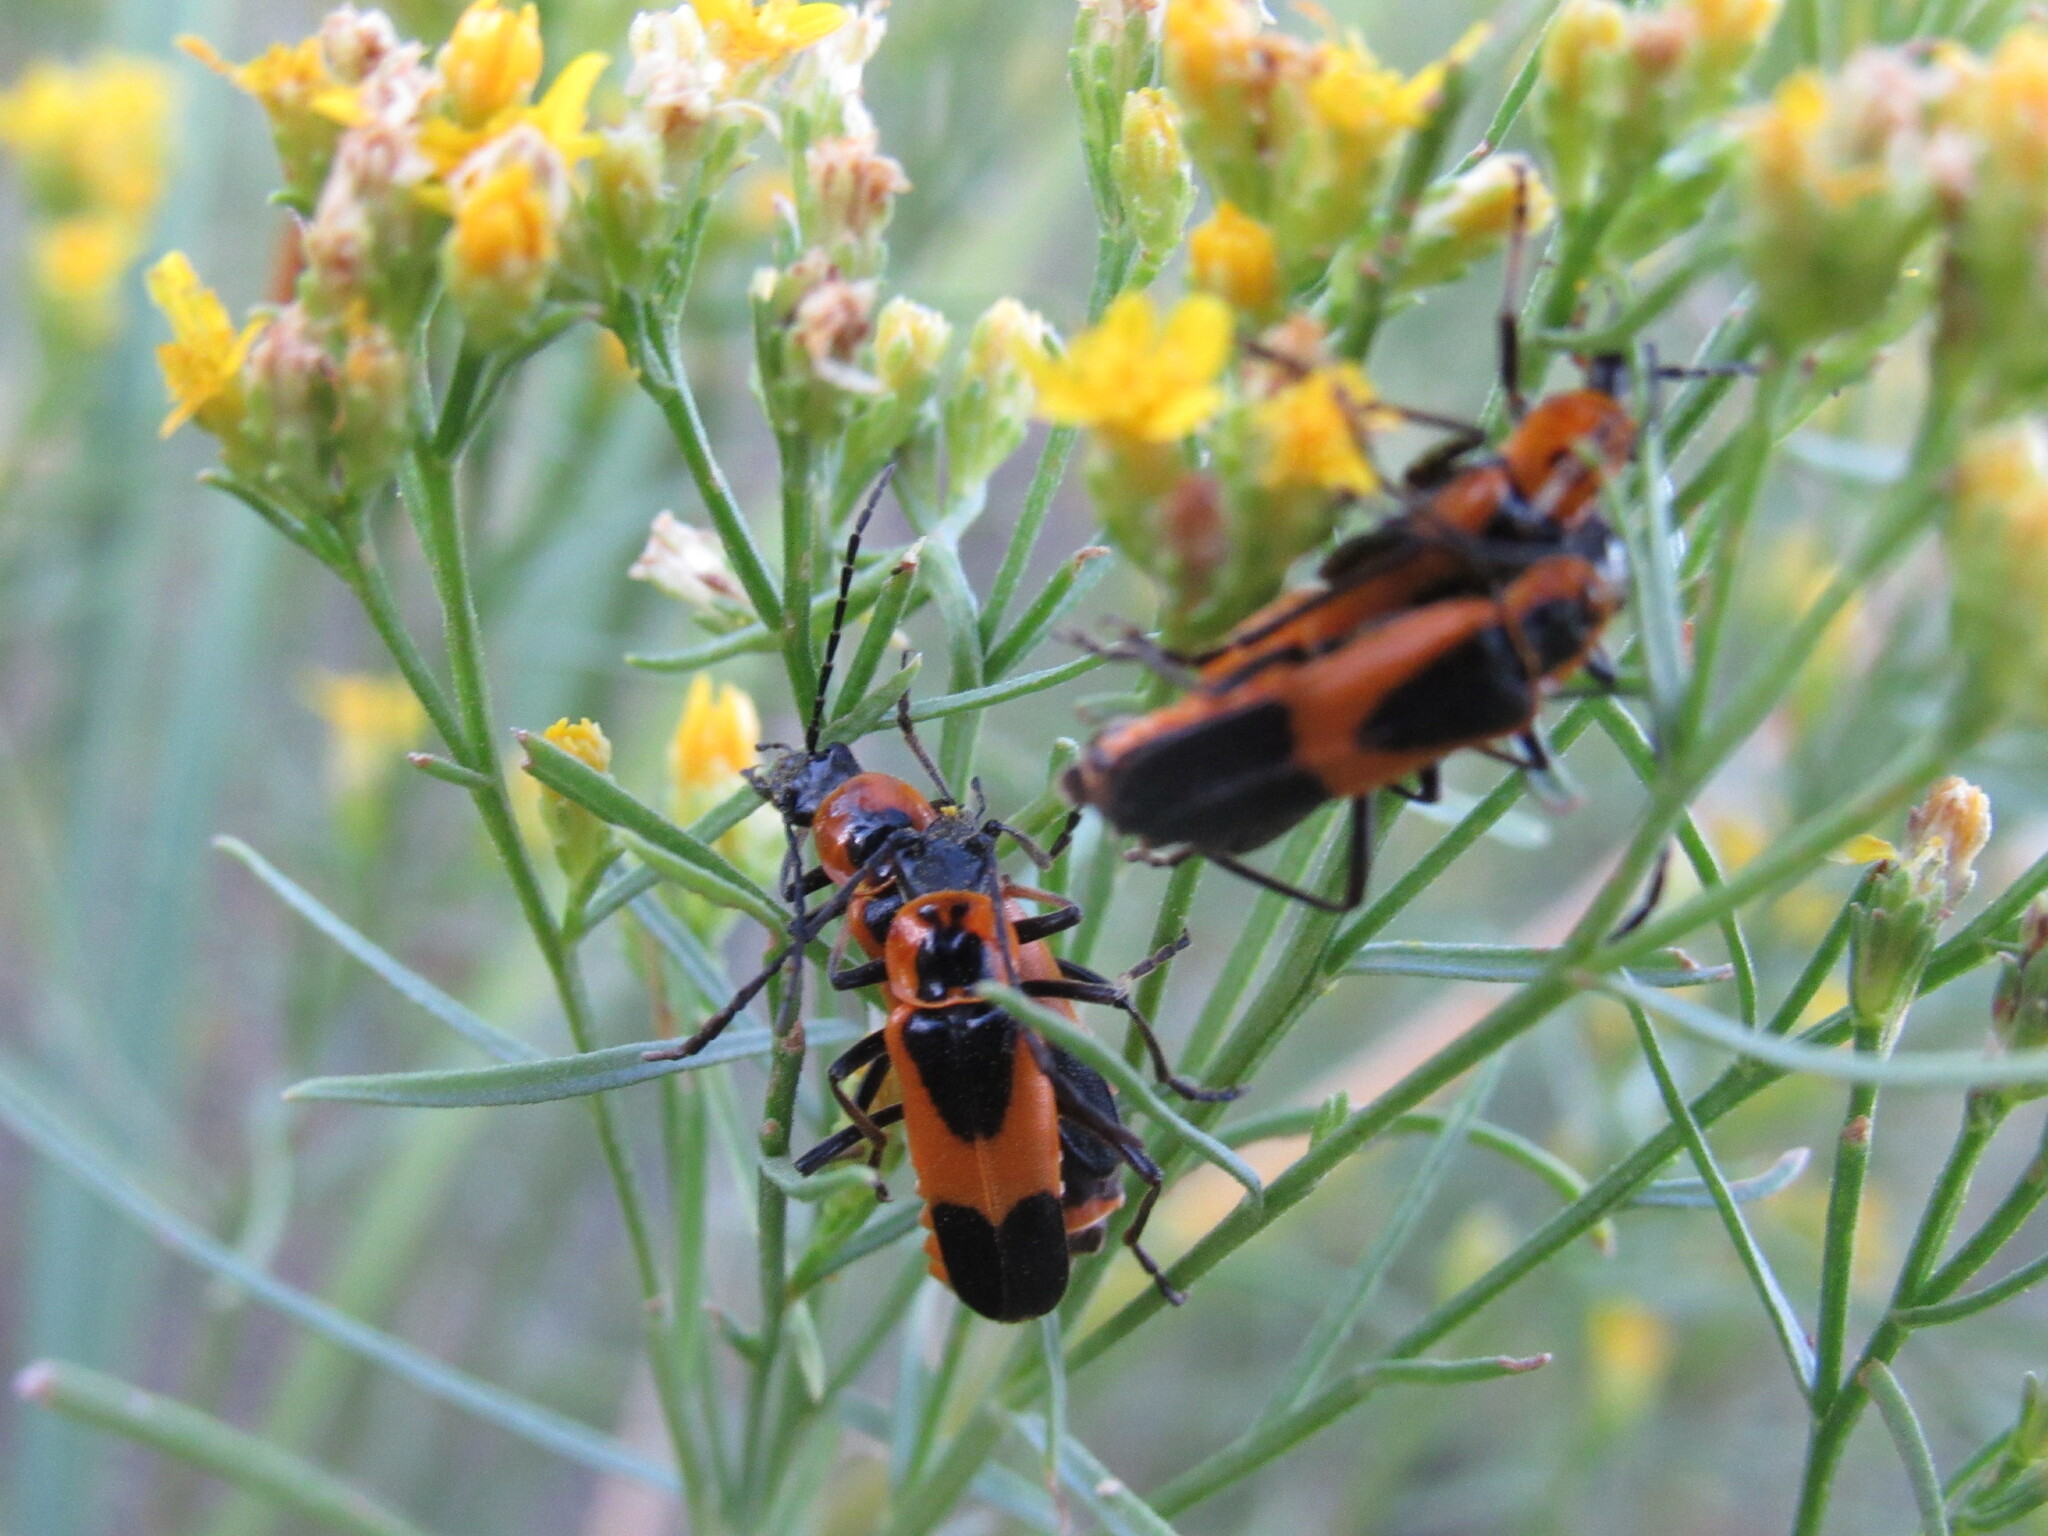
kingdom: Animalia
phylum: Arthropoda
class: Insecta
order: Coleoptera
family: Cantharidae
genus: Chauliognathus
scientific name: Chauliognathus basalis
